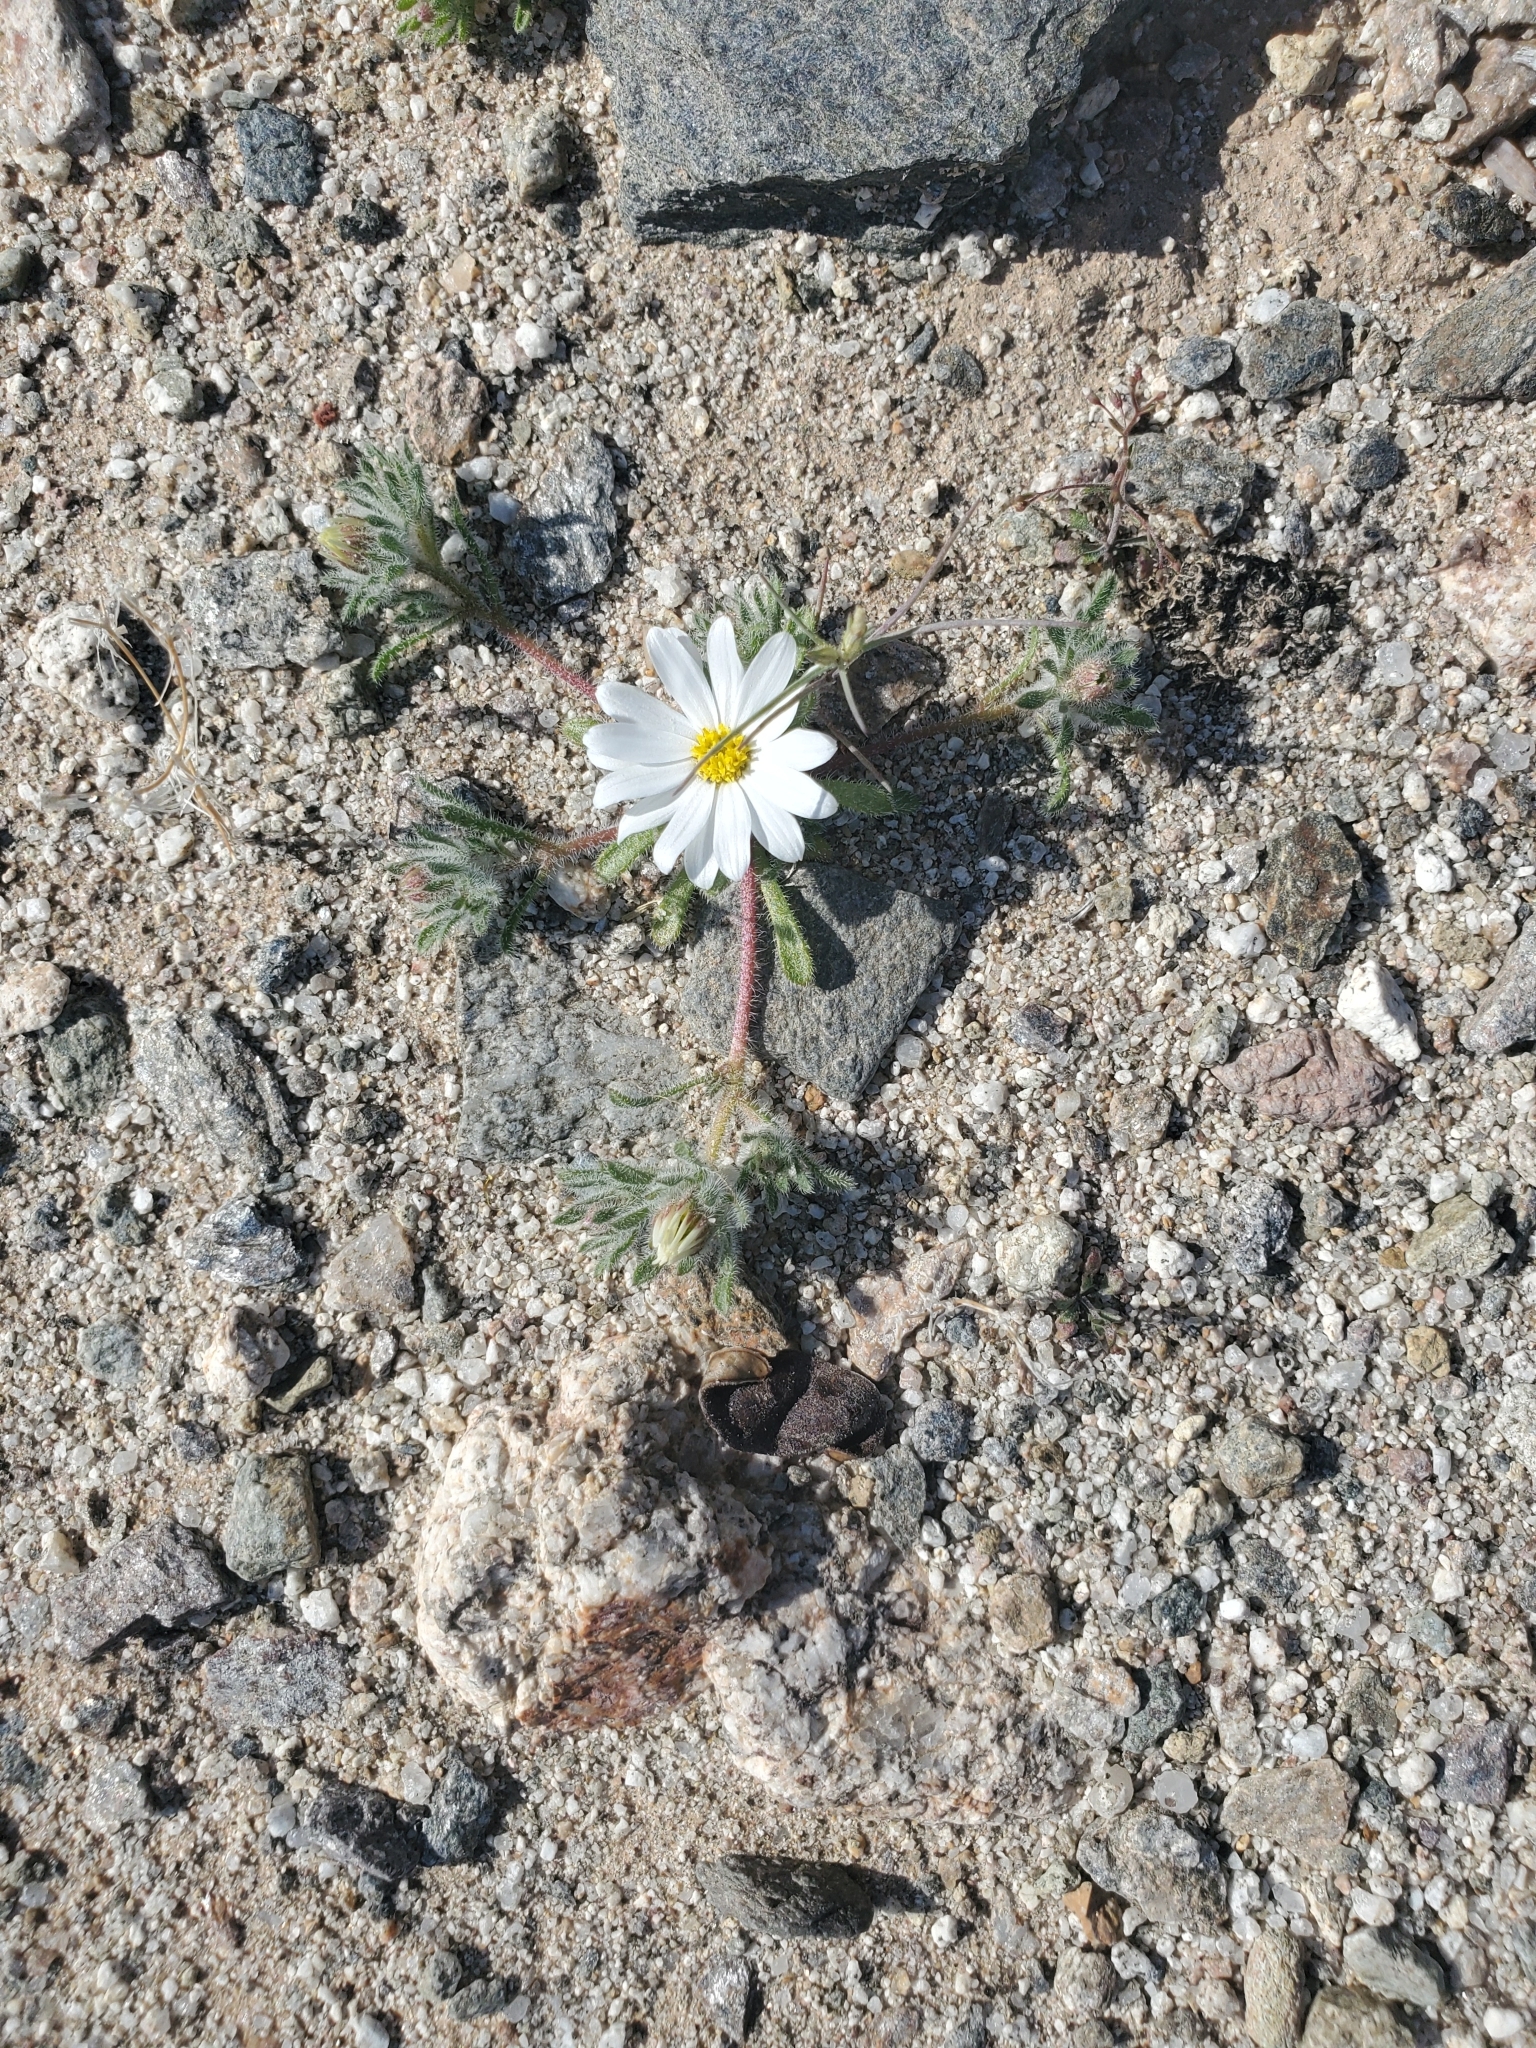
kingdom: Plantae
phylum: Tracheophyta
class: Magnoliopsida
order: Asterales
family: Asteraceae
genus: Monoptilon
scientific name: Monoptilon bellioides
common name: Bristly desertstar
